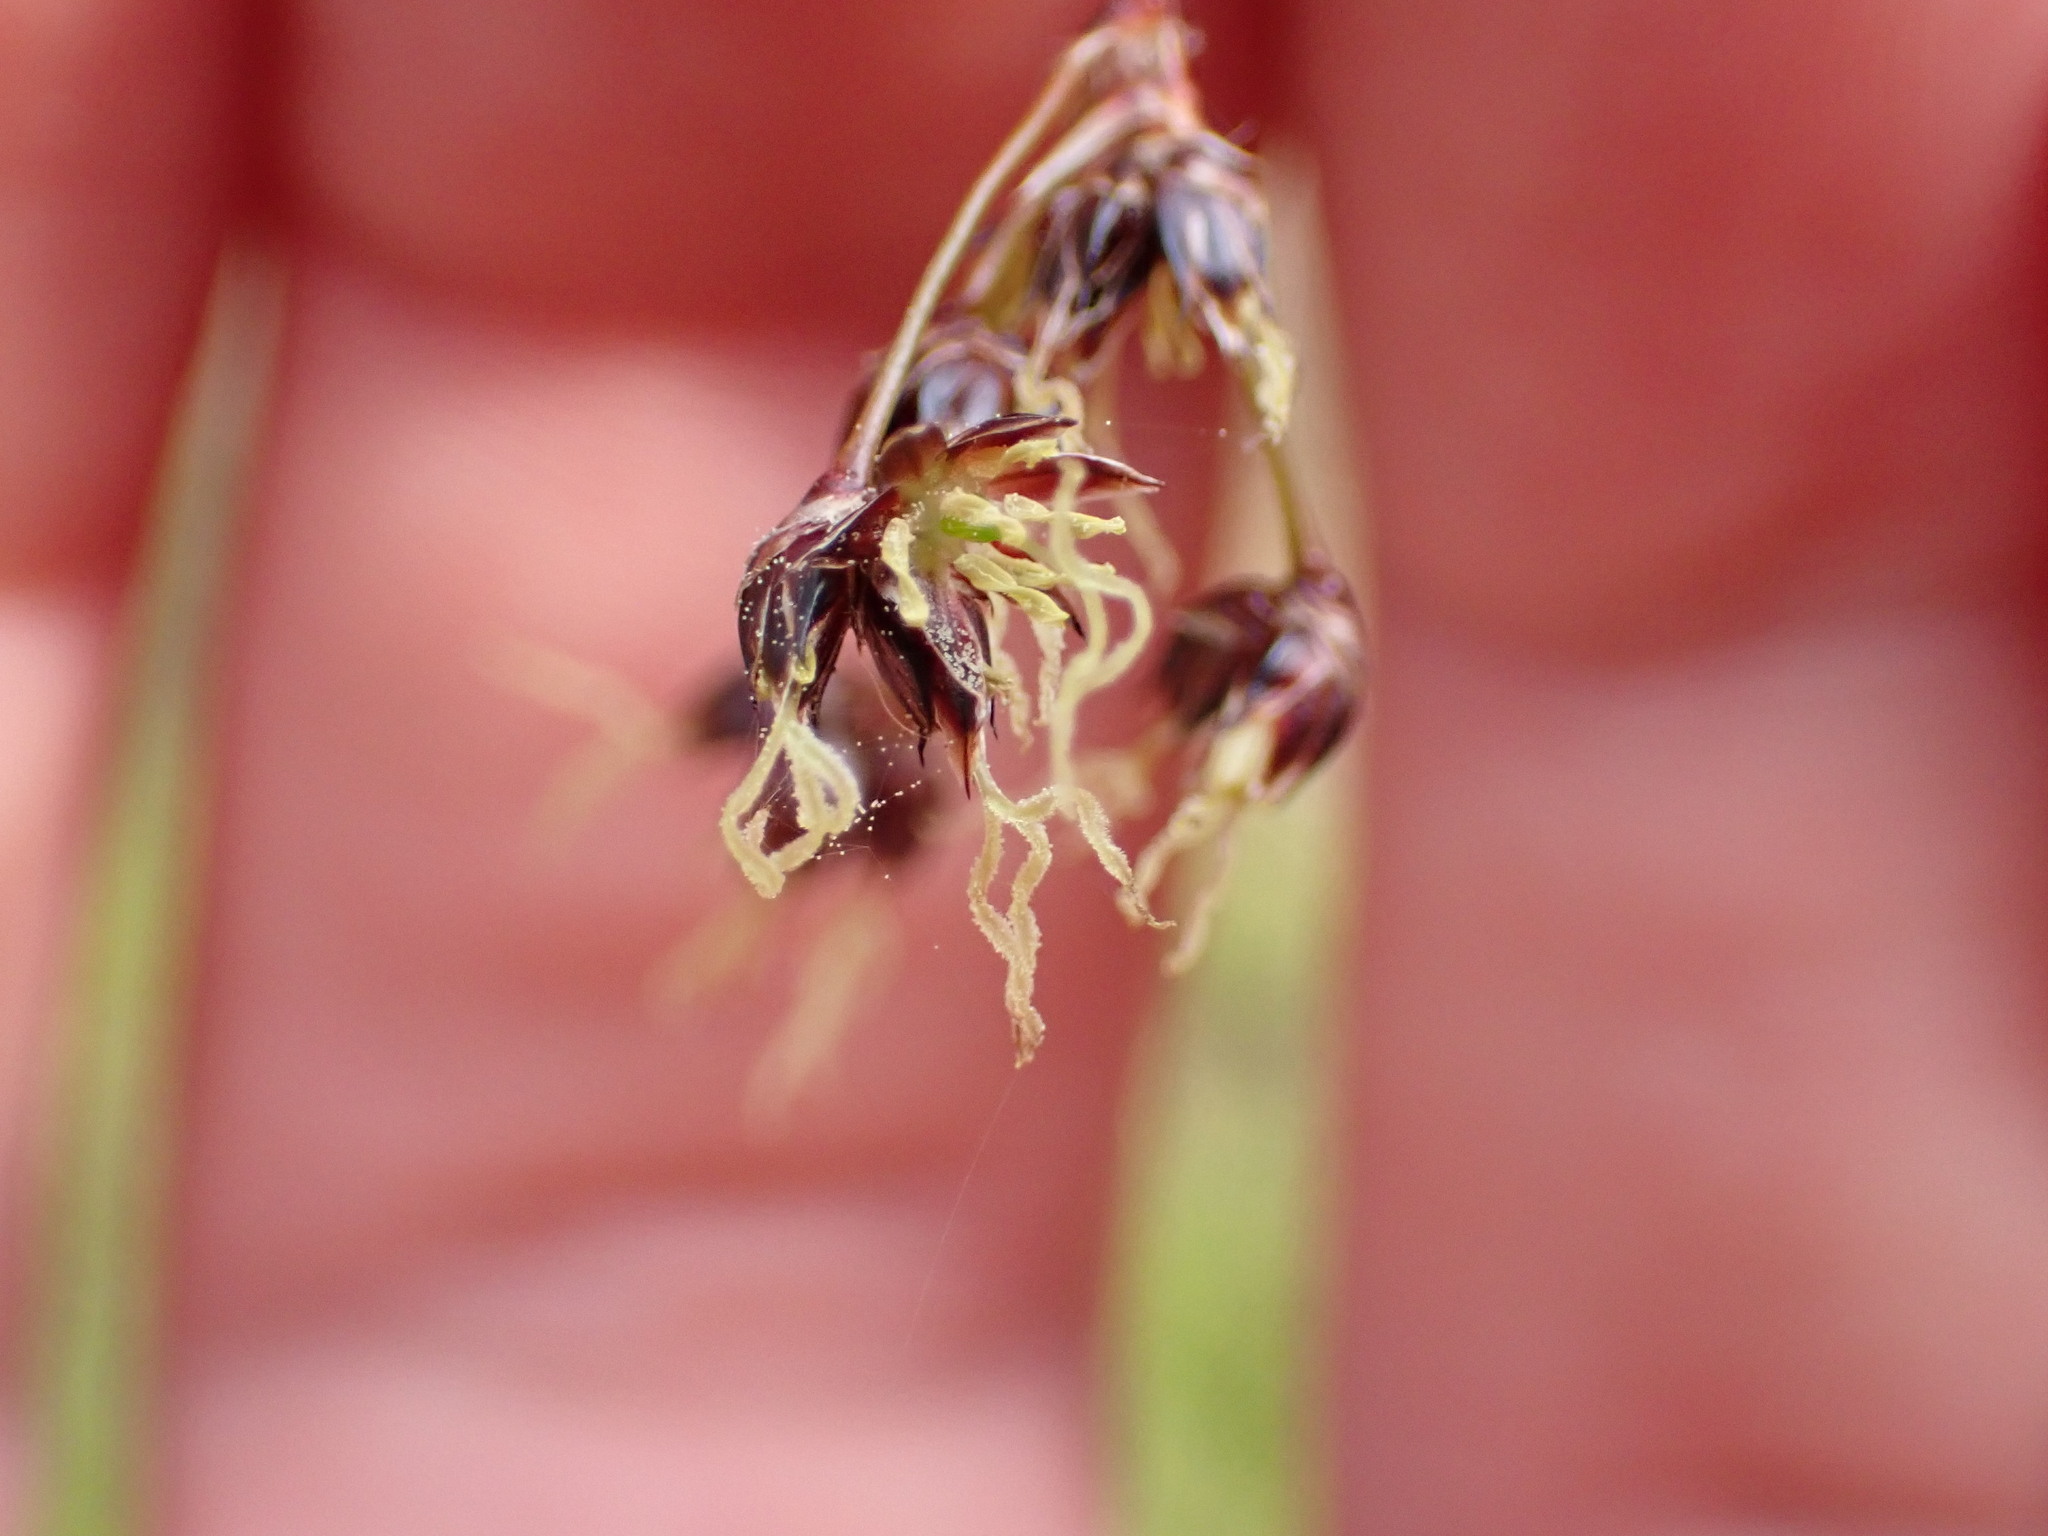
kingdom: Plantae
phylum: Tracheophyta
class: Liliopsida
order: Poales
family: Juncaceae
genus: Luzula
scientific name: Luzula sylvatica
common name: Great wood-rush
